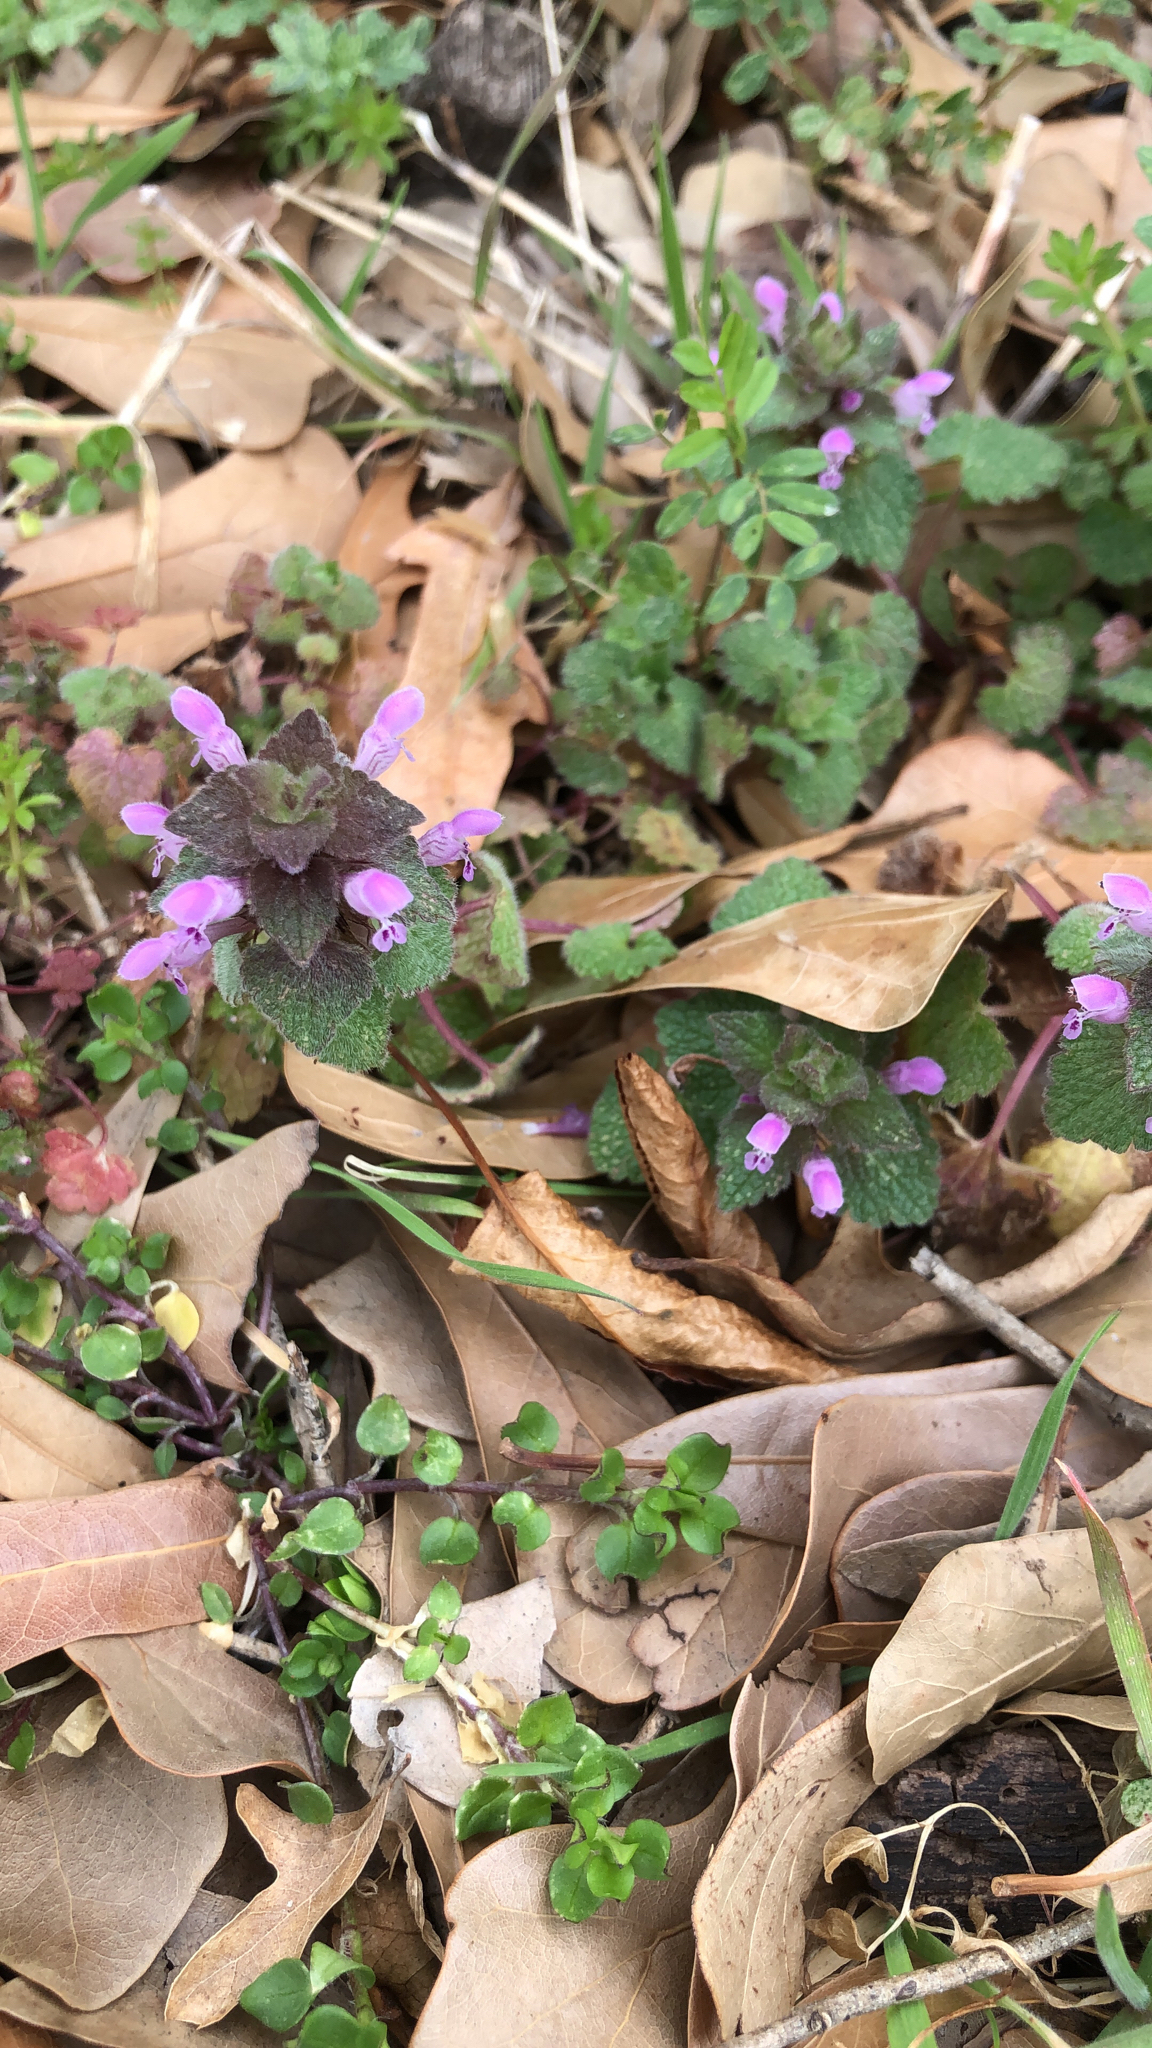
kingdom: Plantae
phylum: Tracheophyta
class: Magnoliopsida
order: Lamiales
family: Lamiaceae
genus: Lamium
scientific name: Lamium purpureum
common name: Red dead-nettle
